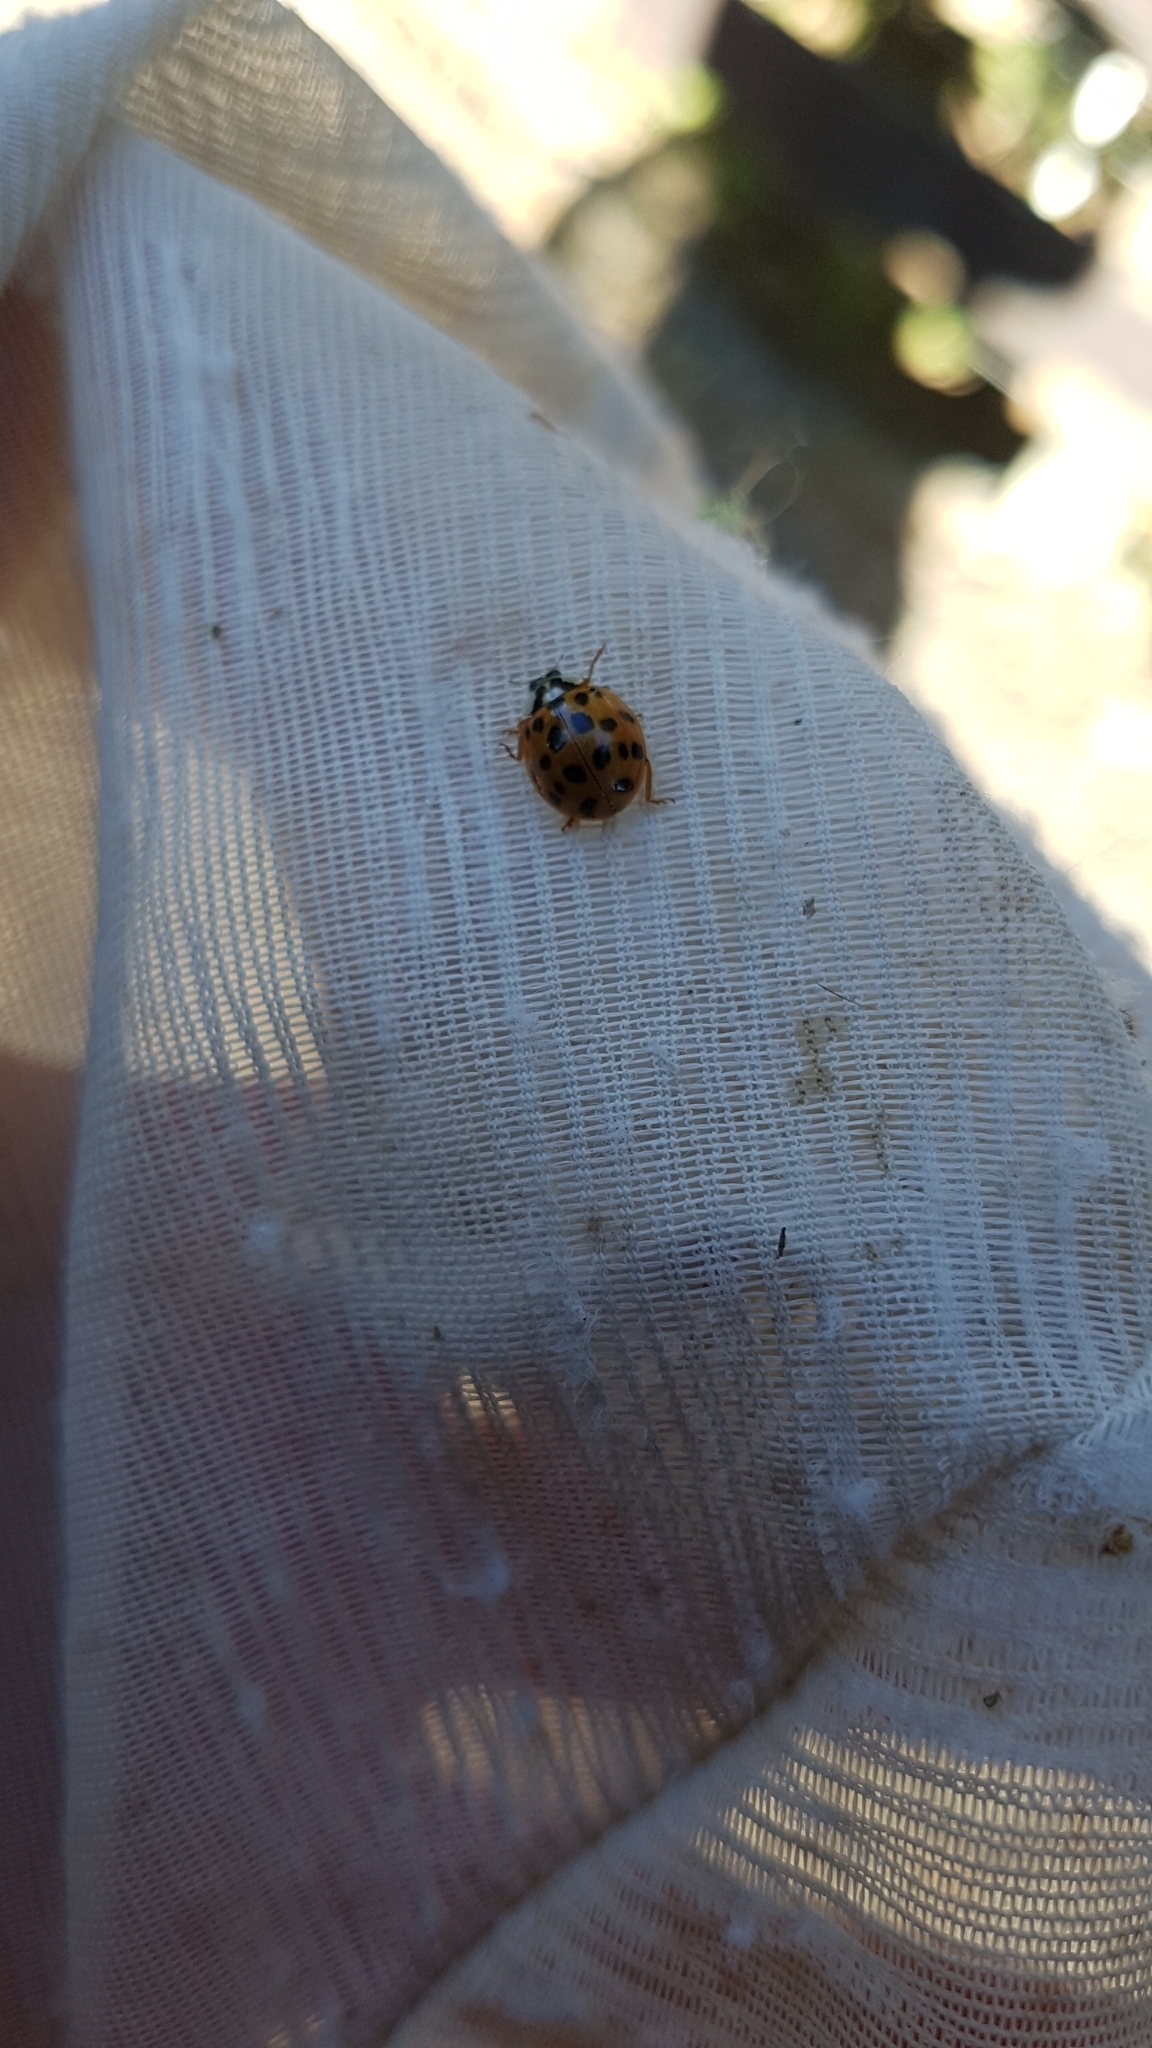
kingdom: Animalia
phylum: Arthropoda
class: Insecta
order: Coleoptera
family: Coccinellidae
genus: Harmonia
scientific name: Harmonia axyridis
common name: Harlequin ladybird
